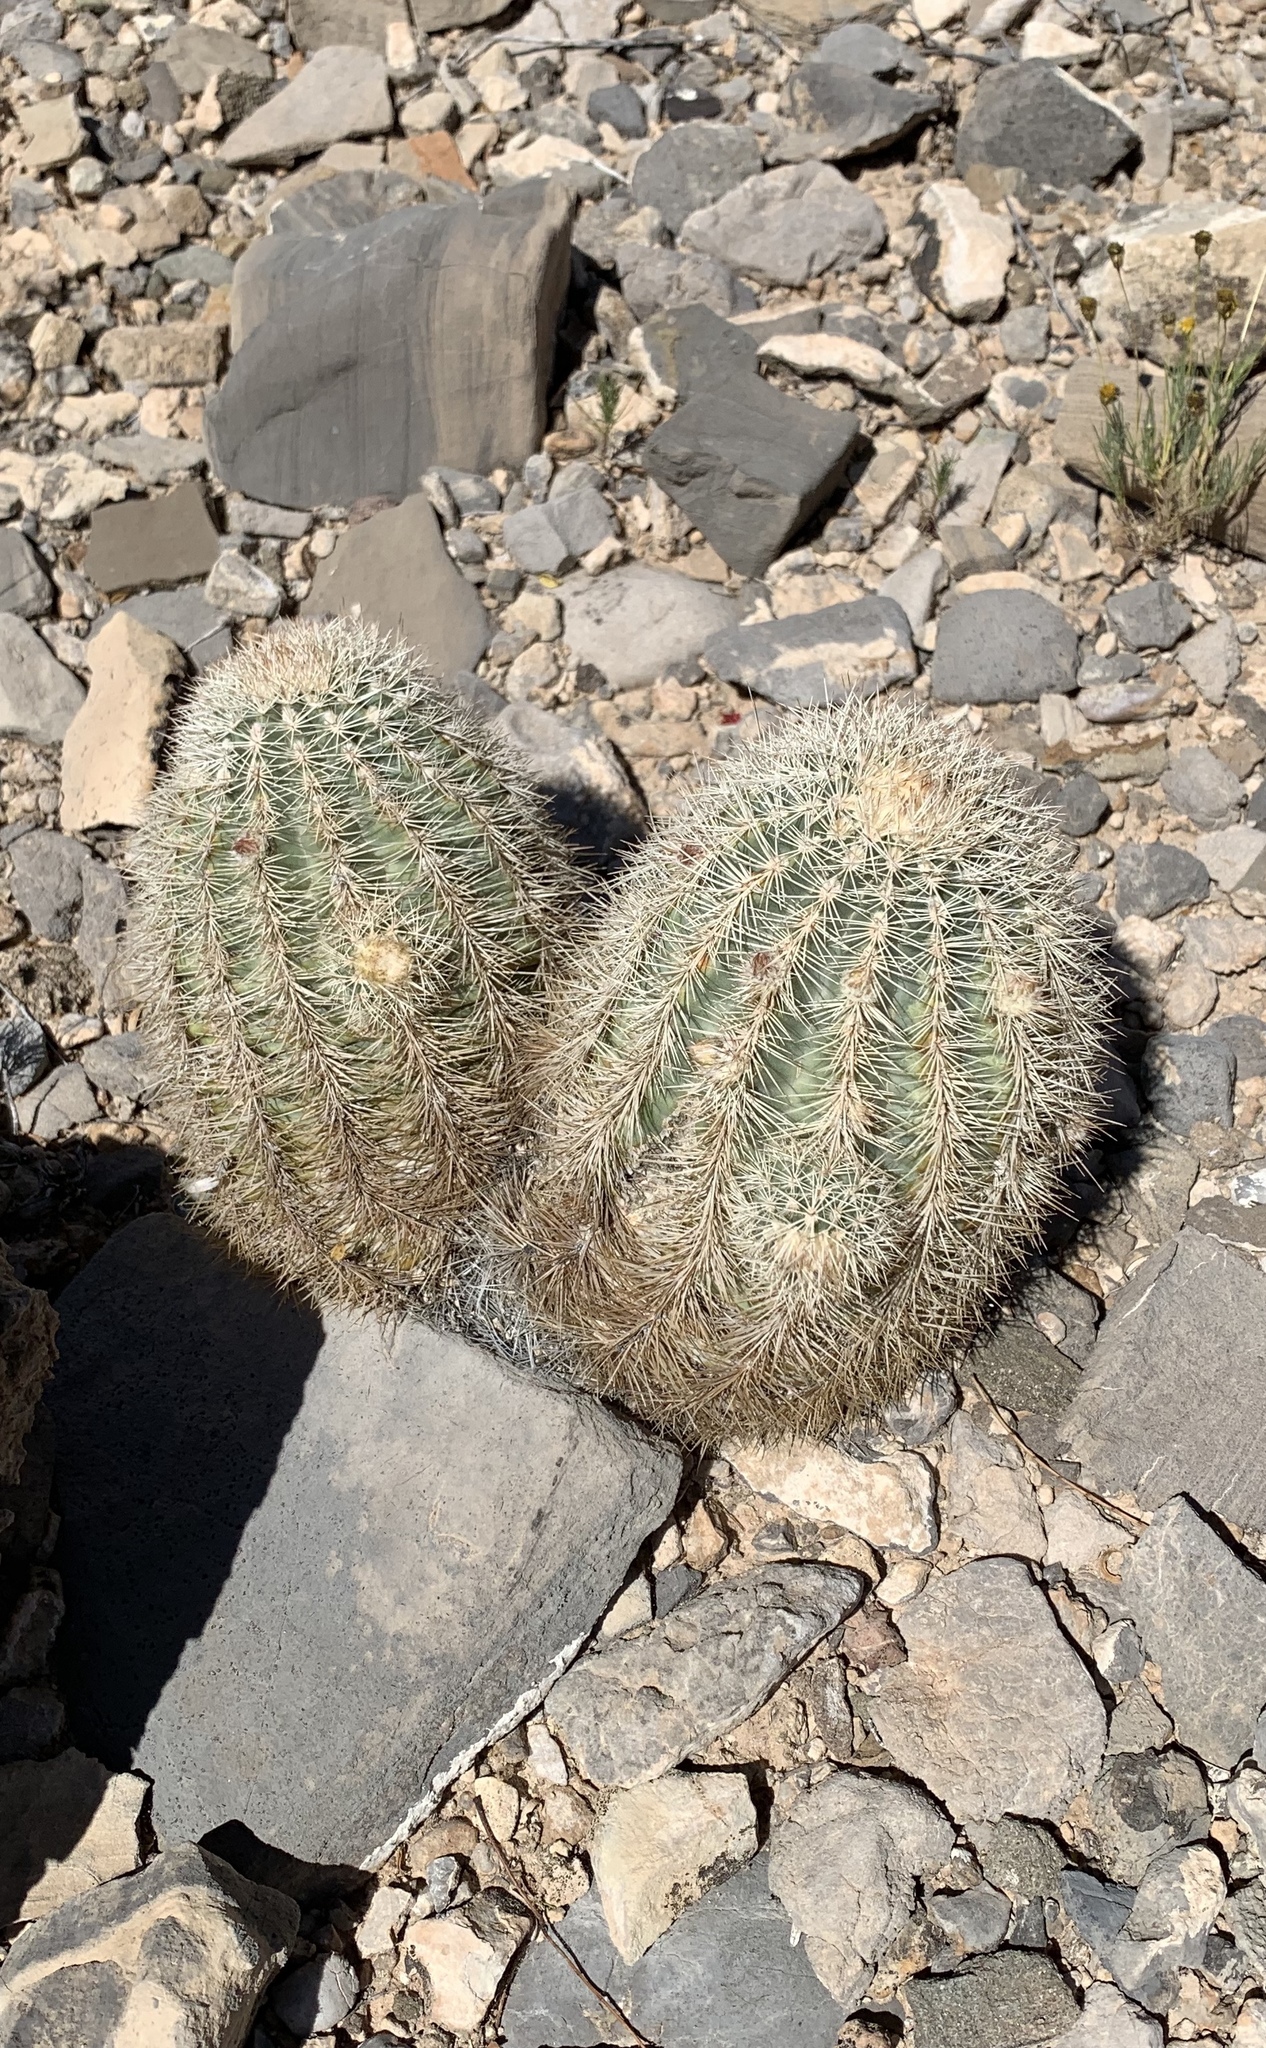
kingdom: Plantae
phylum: Tracheophyta
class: Magnoliopsida
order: Caryophyllales
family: Cactaceae
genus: Echinocereus
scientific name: Echinocereus dasyacanthus
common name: Spiny hedgehog cactus
